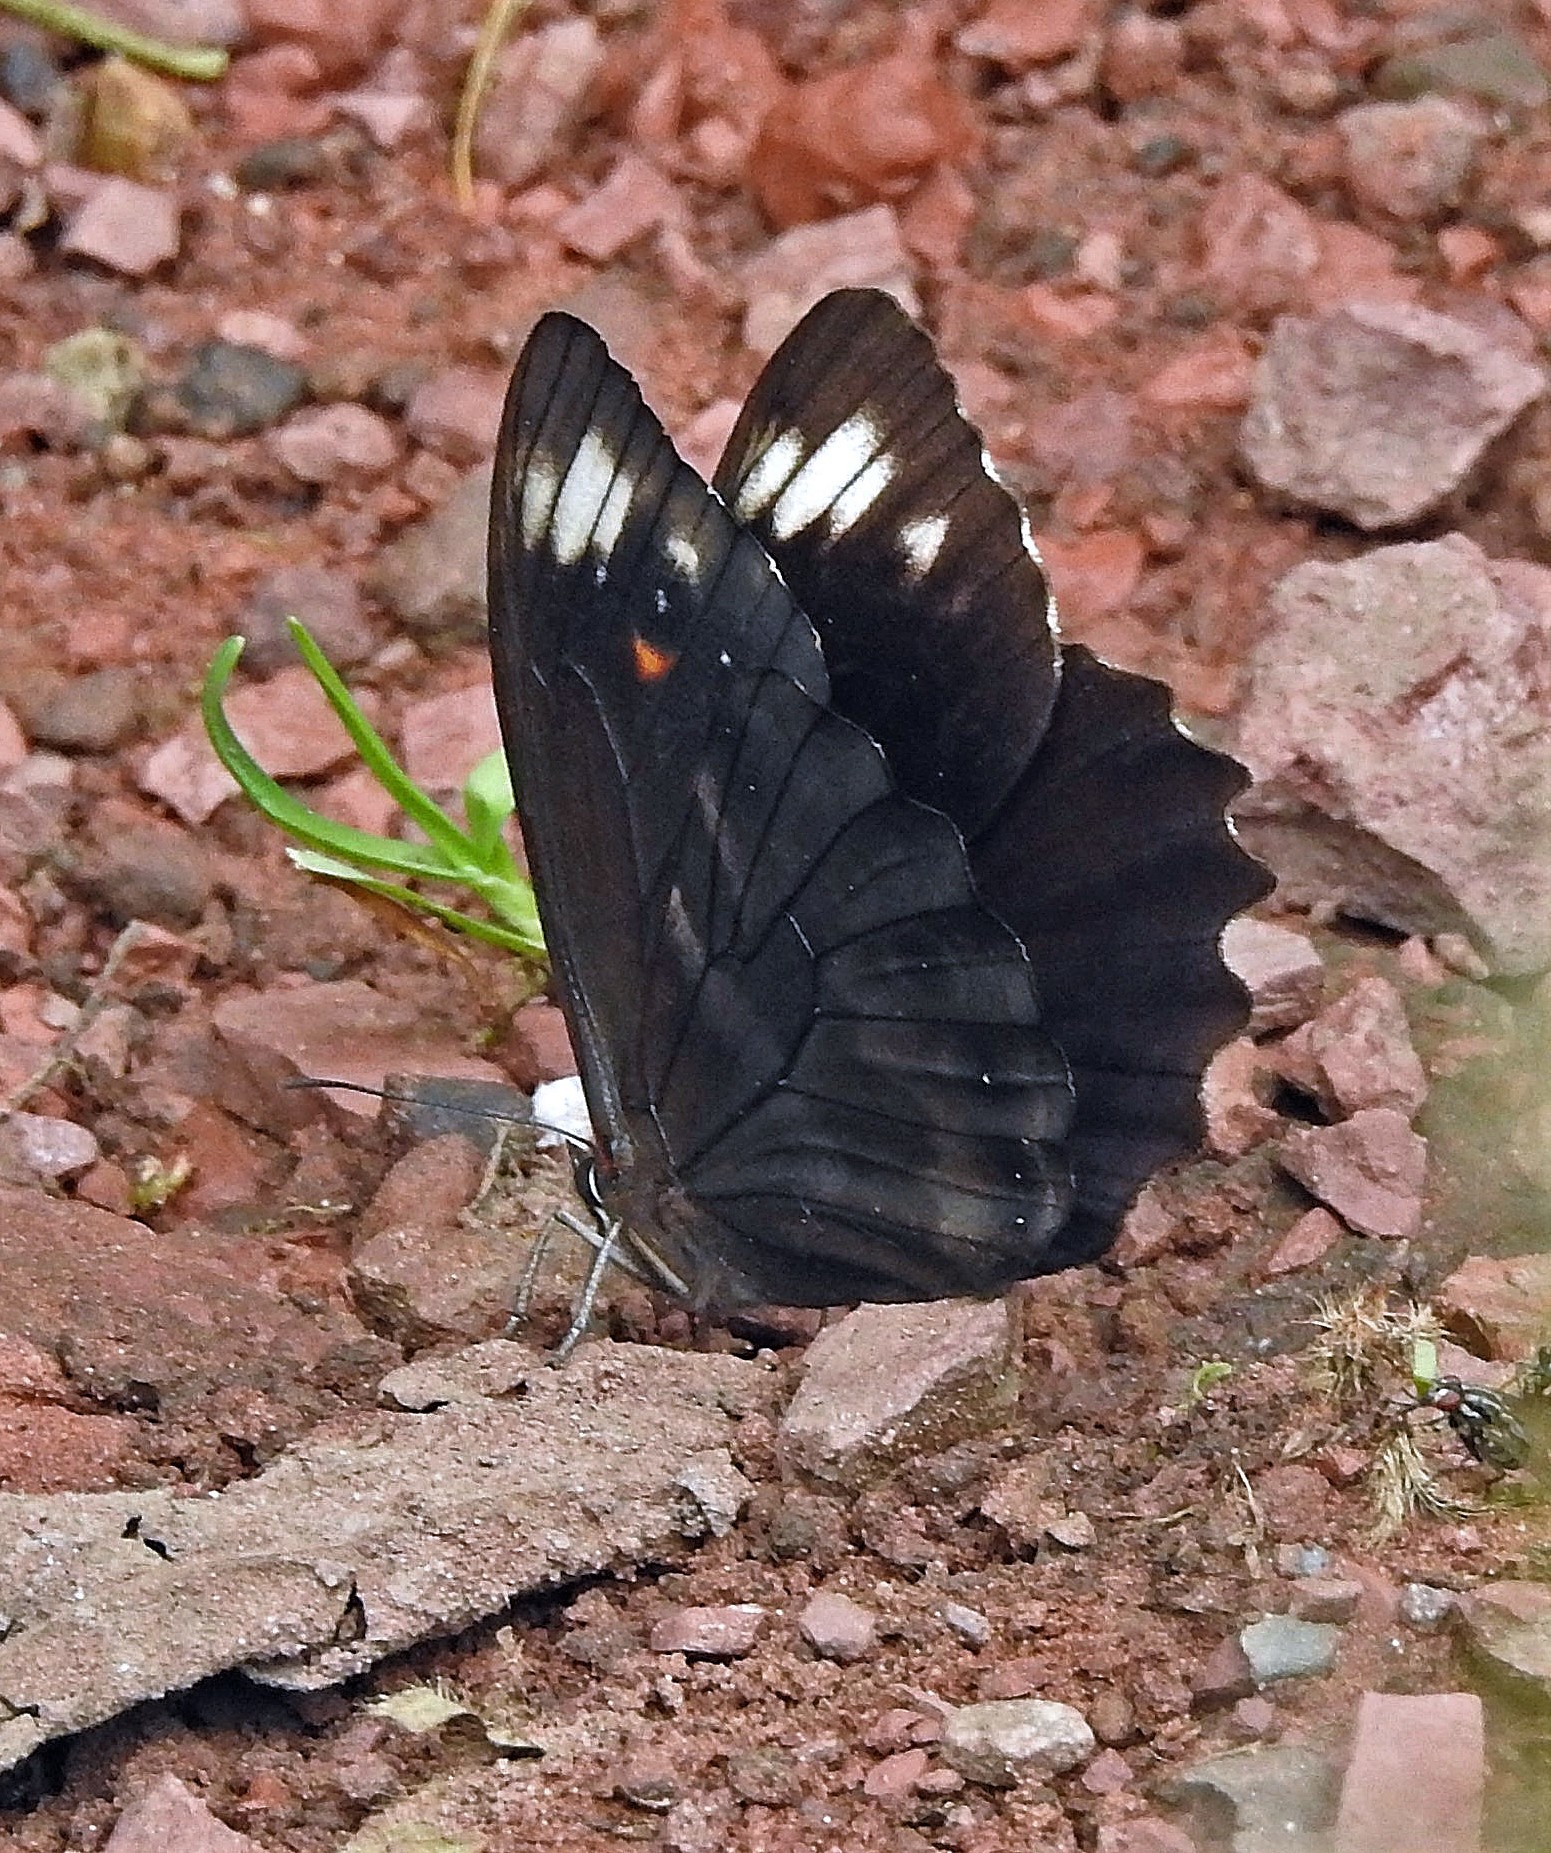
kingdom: Animalia
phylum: Arthropoda
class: Insecta
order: Lepidoptera
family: Nymphalidae
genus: Pronophila
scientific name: Pronophila unifasciata
